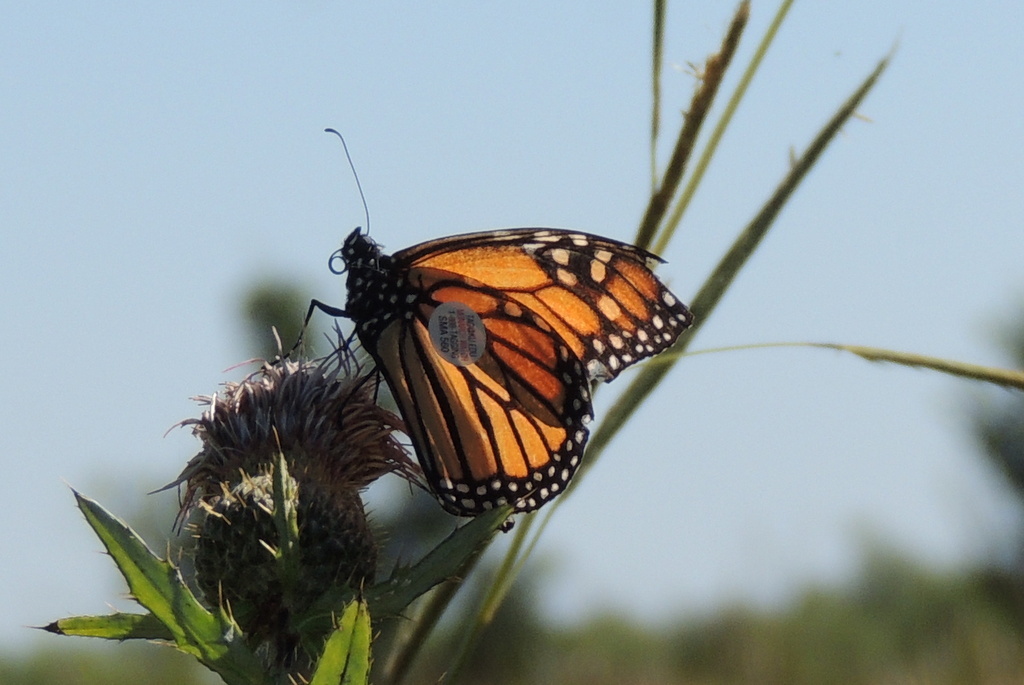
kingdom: Animalia
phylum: Arthropoda
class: Insecta
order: Lepidoptera
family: Nymphalidae
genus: Danaus
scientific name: Danaus plexippus
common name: Monarch
